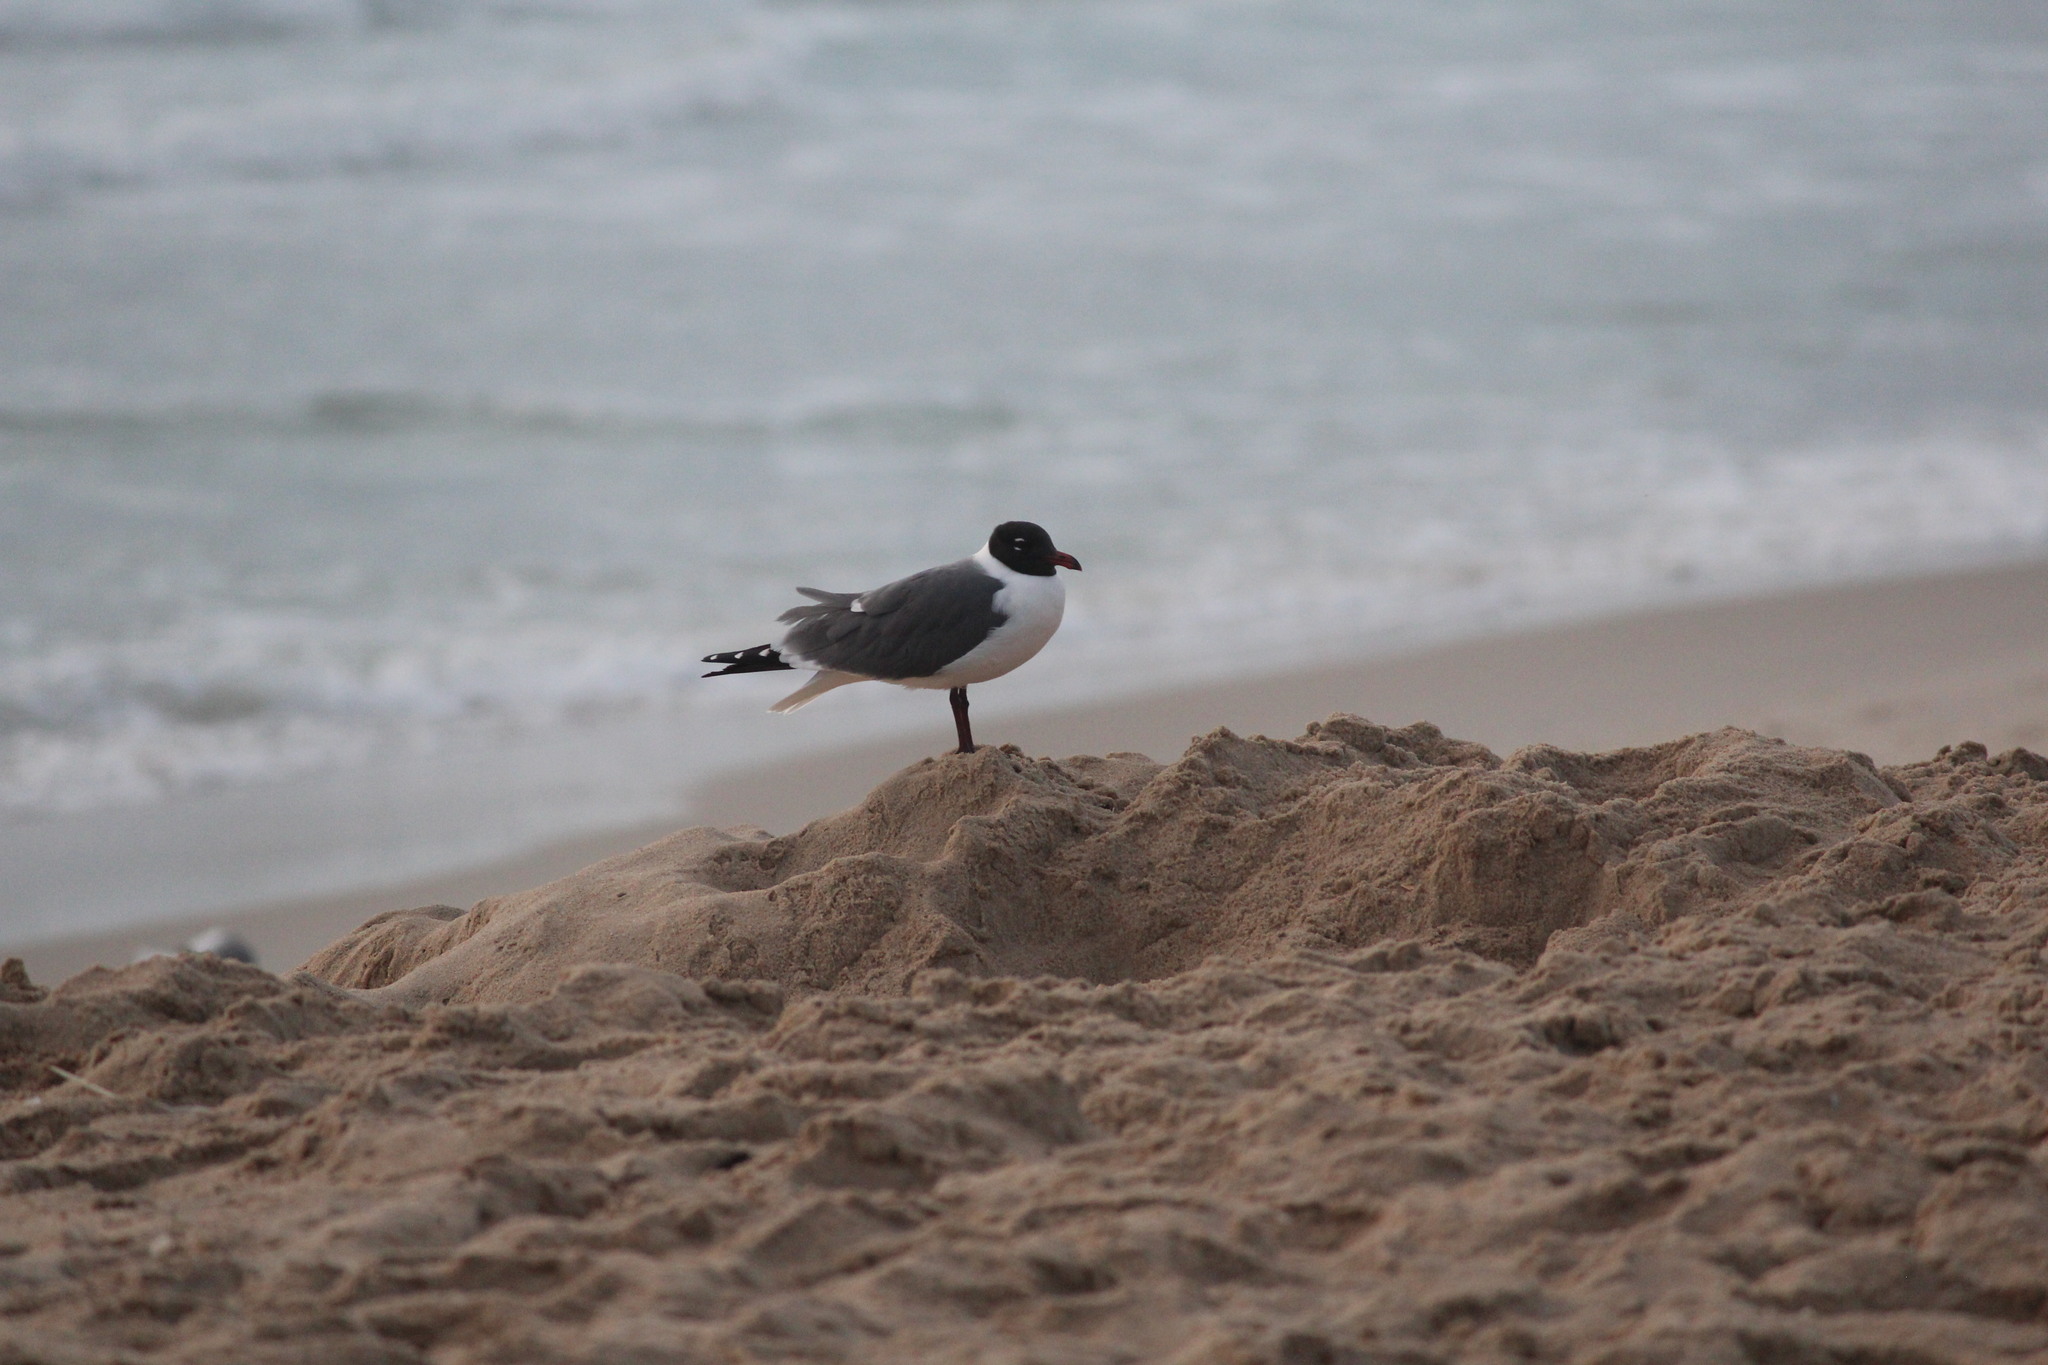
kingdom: Animalia
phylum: Chordata
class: Aves
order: Charadriiformes
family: Laridae
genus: Leucophaeus
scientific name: Leucophaeus atricilla
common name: Laughing gull
